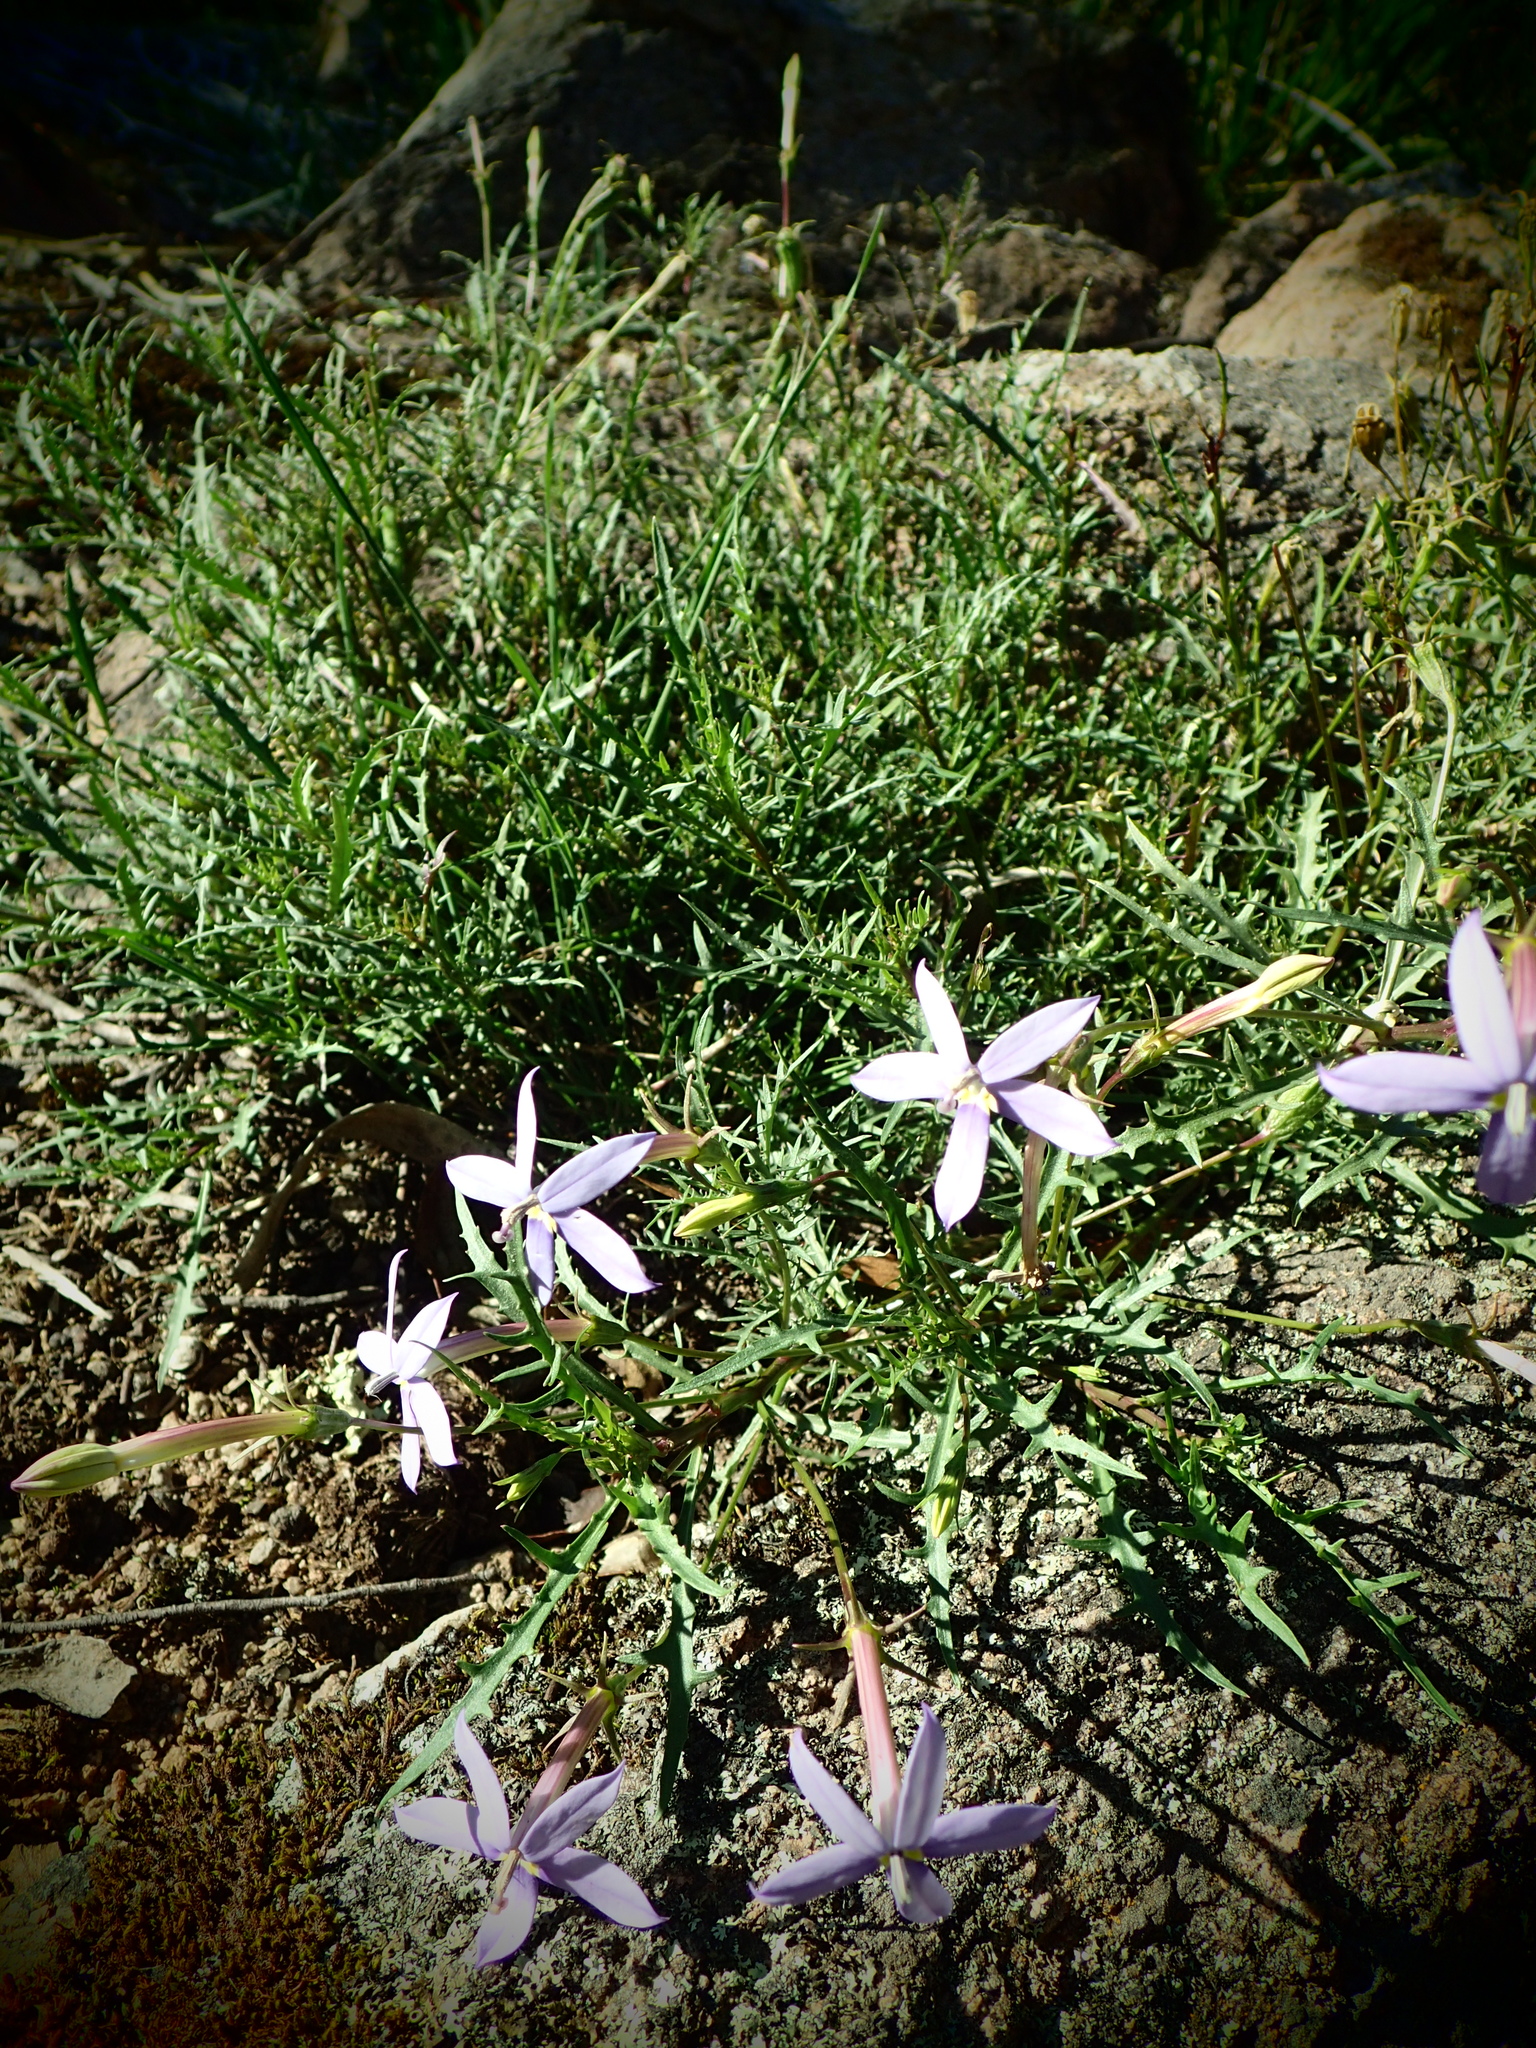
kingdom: Plantae
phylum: Tracheophyta
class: Magnoliopsida
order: Asterales
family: Campanulaceae
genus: Lithotoma
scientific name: Lithotoma axillaris
